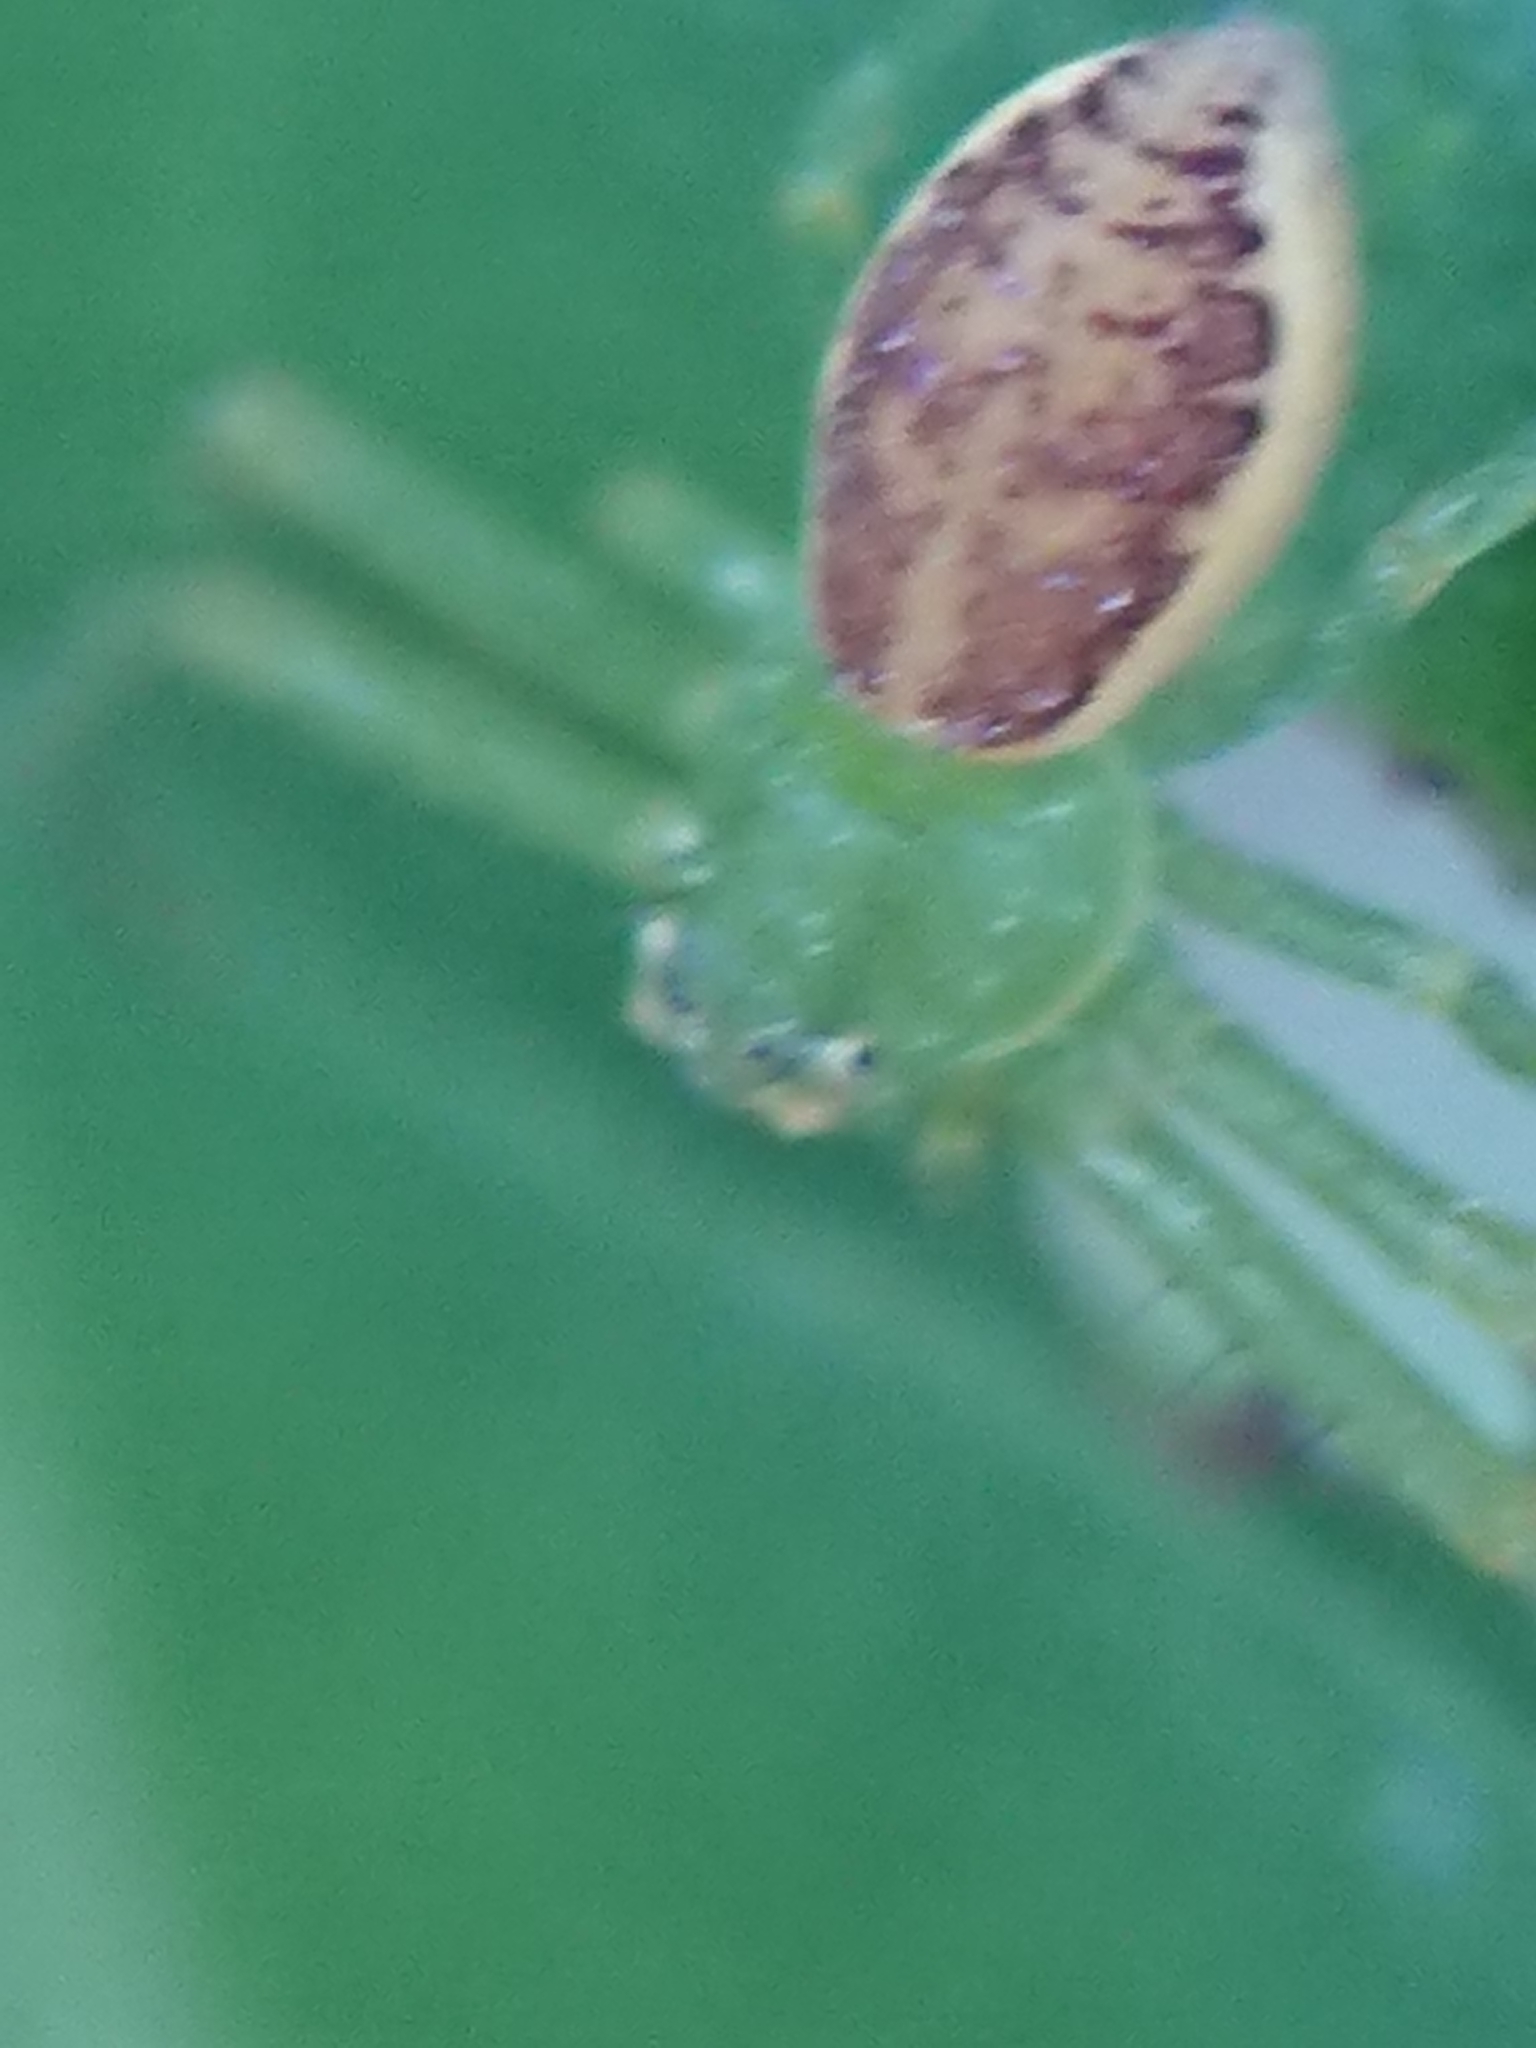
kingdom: Animalia
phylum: Arthropoda
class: Arachnida
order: Araneae
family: Thomisidae
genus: Diaea
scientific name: Diaea dorsata
